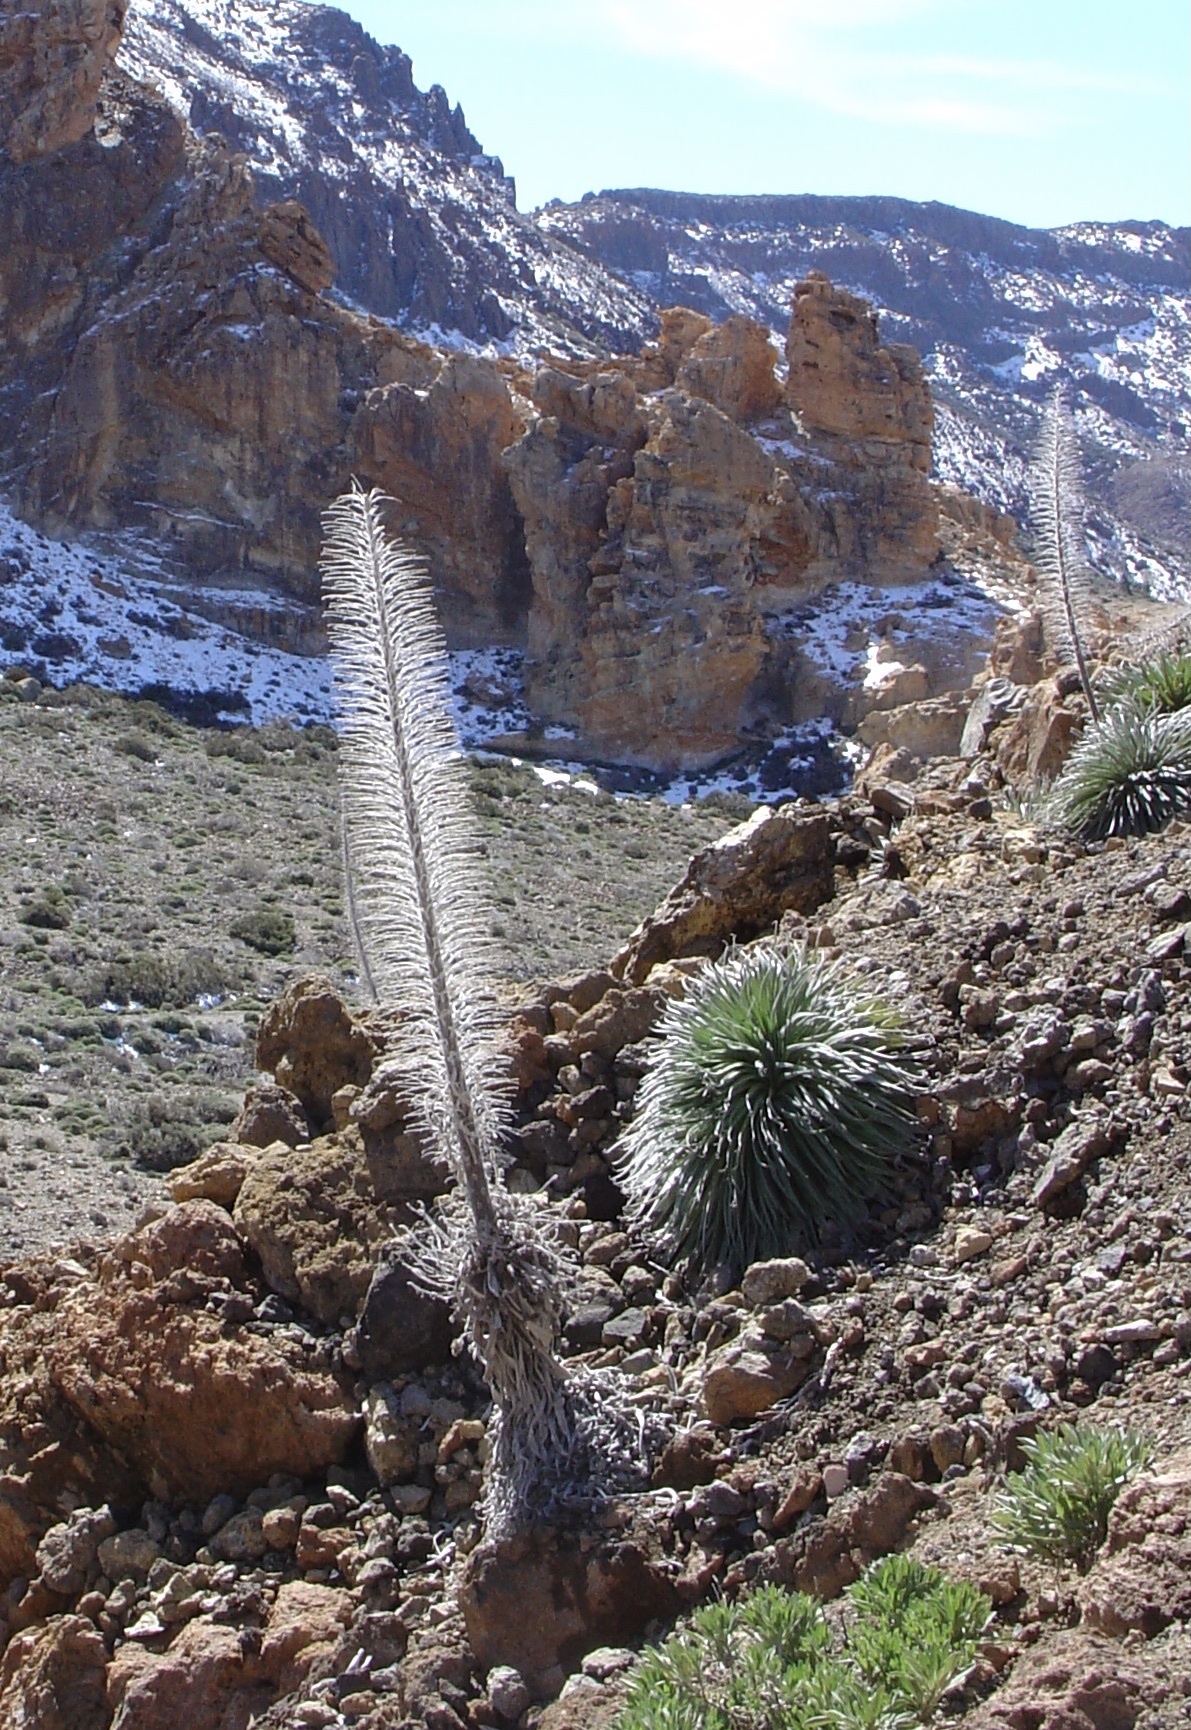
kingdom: Plantae
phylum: Tracheophyta
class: Magnoliopsida
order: Boraginales
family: Boraginaceae
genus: Echium
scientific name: Echium wildpretii
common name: Tower-of-jewels
